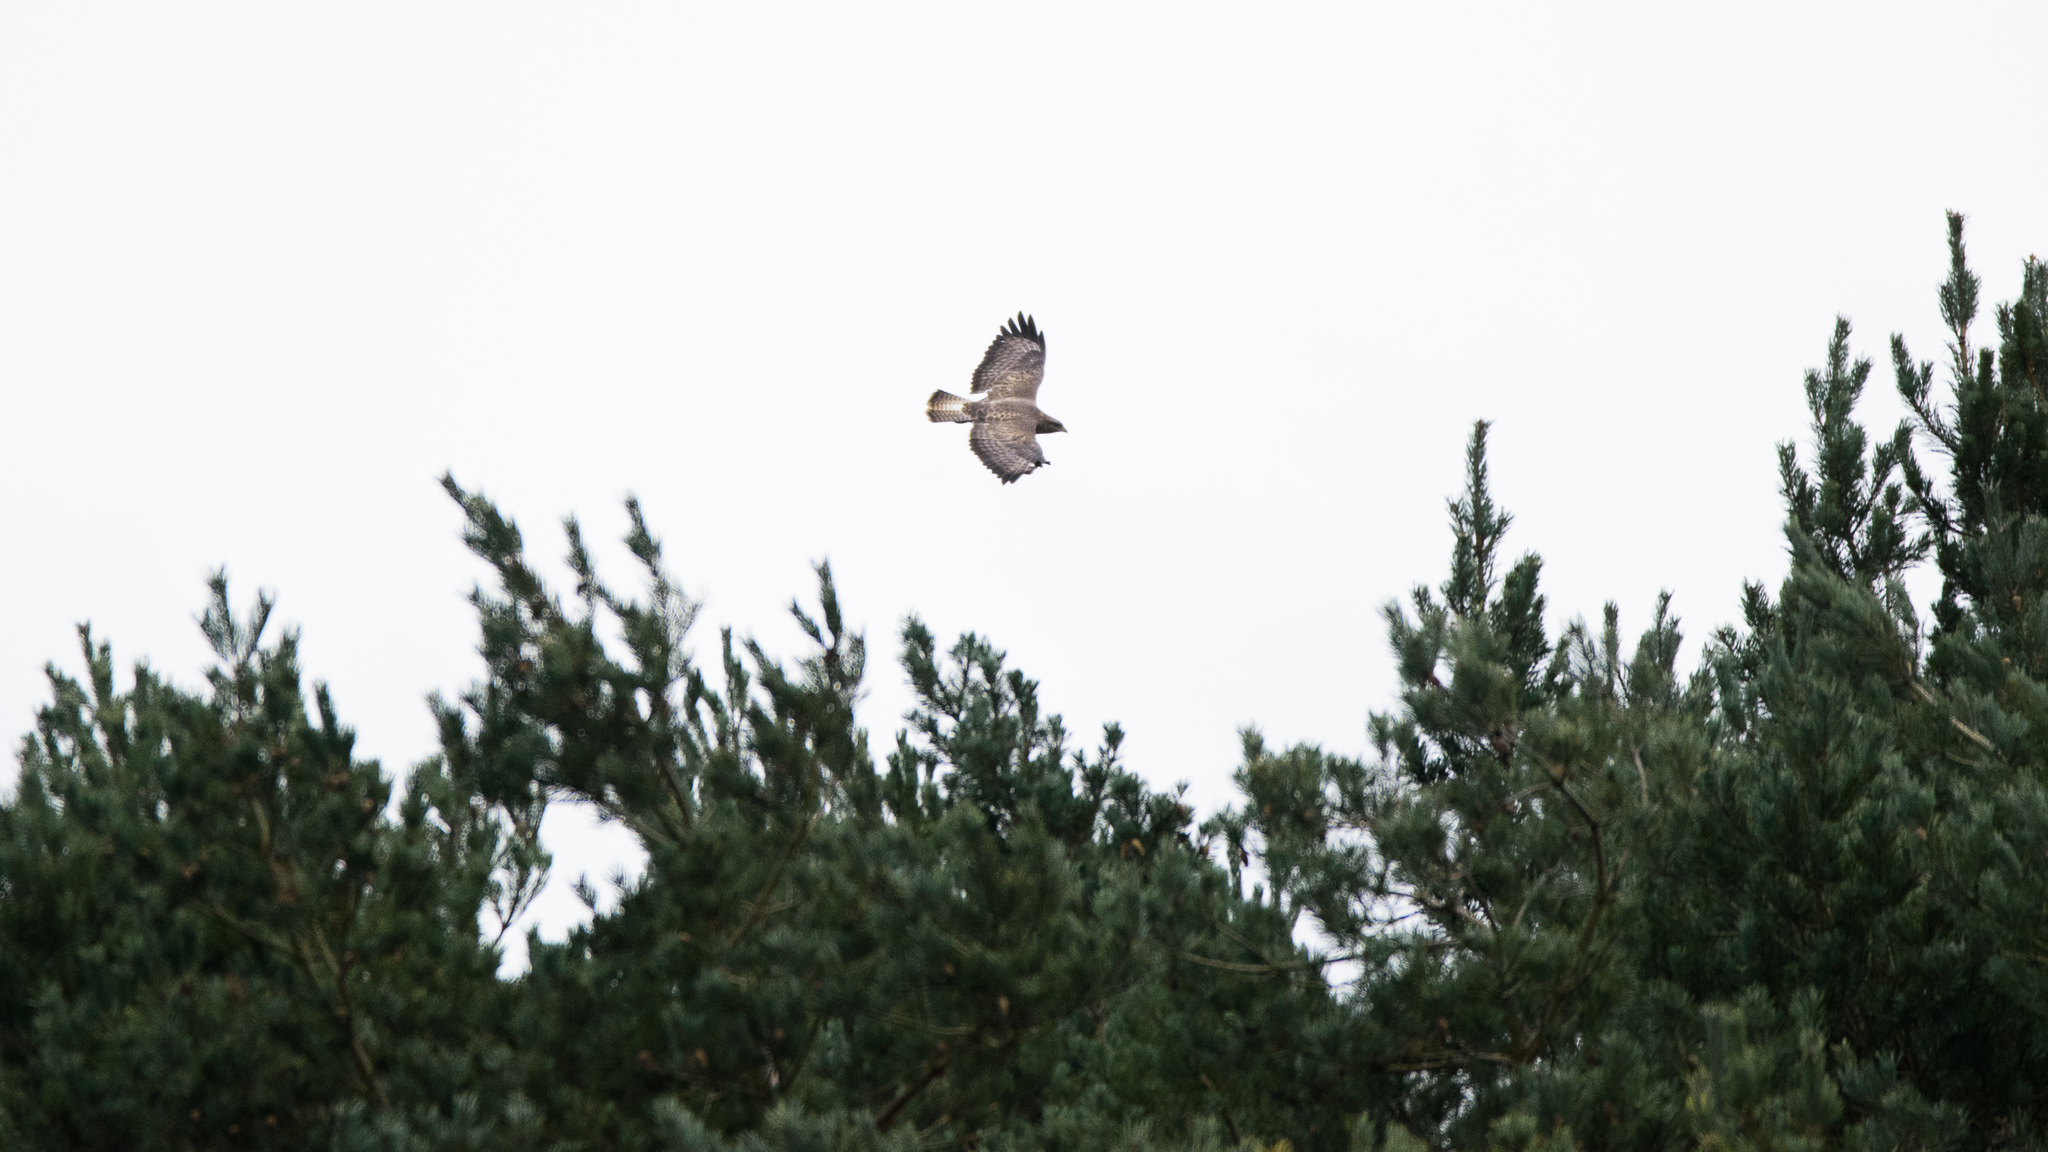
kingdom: Animalia
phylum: Chordata
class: Aves
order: Accipitriformes
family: Accipitridae
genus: Buteo
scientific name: Buteo buteo
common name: Common buzzard
